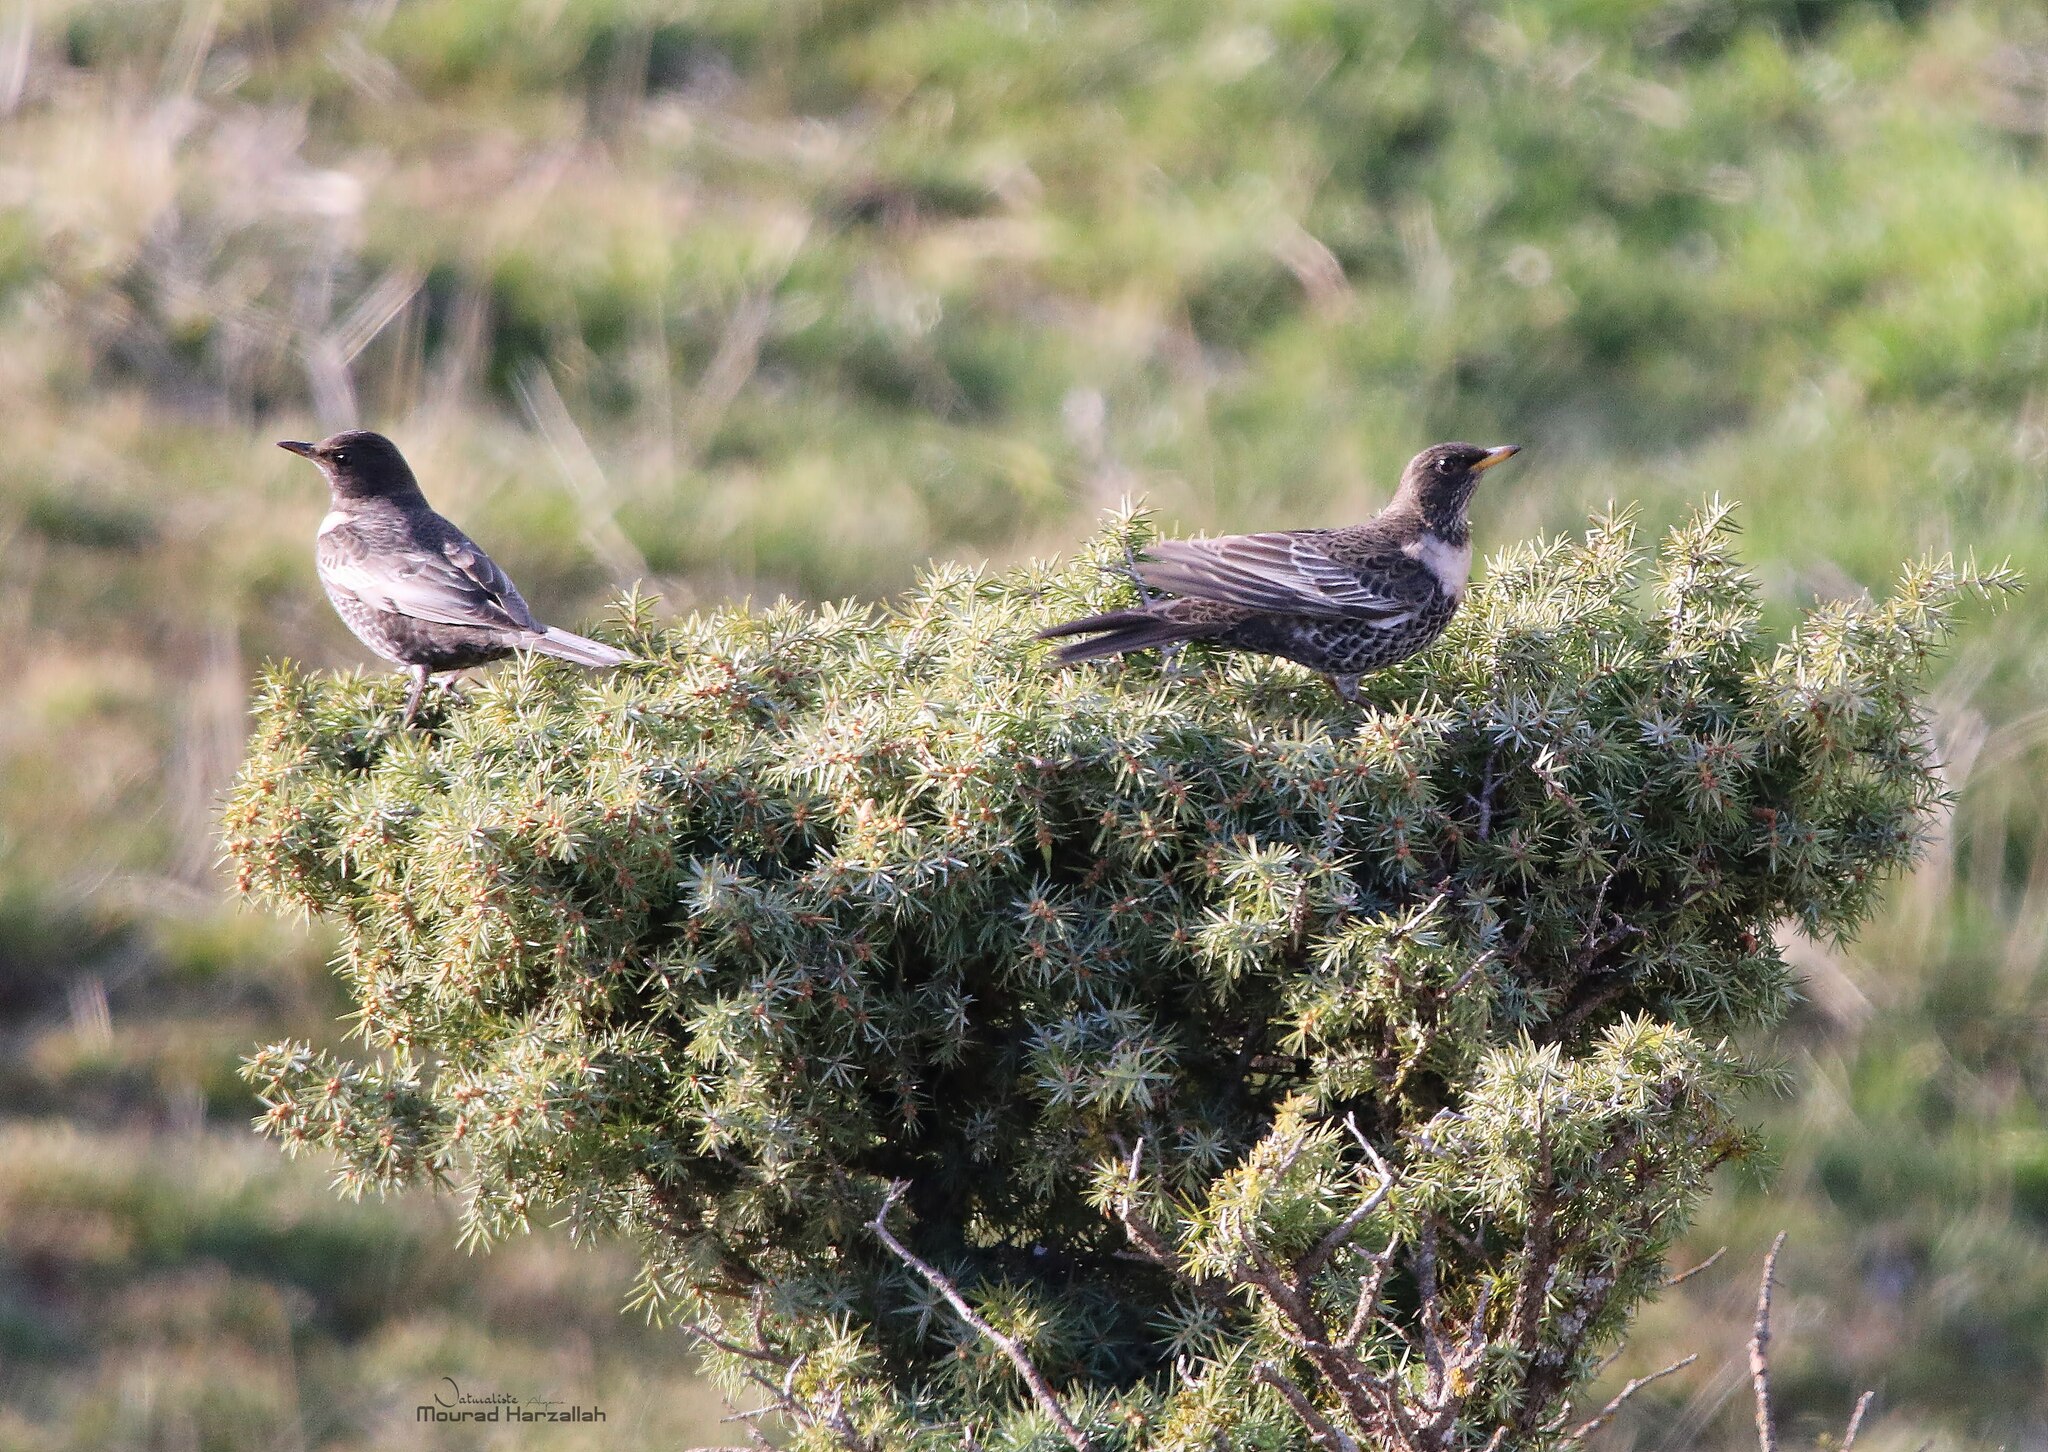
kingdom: Animalia
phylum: Chordata
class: Aves
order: Passeriformes
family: Turdidae
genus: Turdus
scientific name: Turdus torquatus
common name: Ring ouzel
